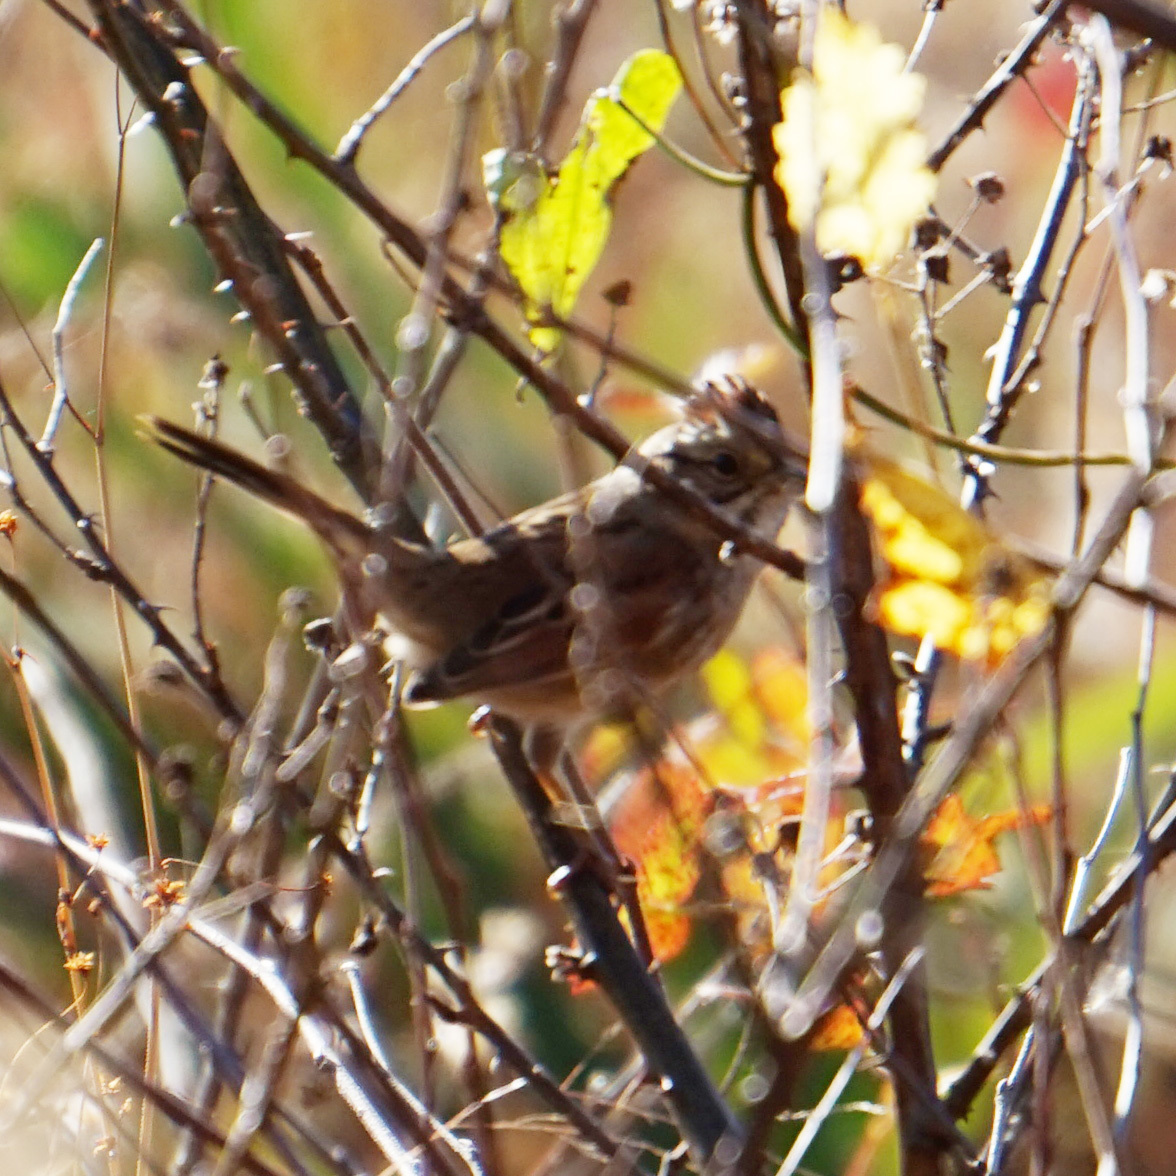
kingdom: Animalia
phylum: Chordata
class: Aves
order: Passeriformes
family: Passerellidae
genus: Melospiza
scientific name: Melospiza georgiana
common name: Swamp sparrow
